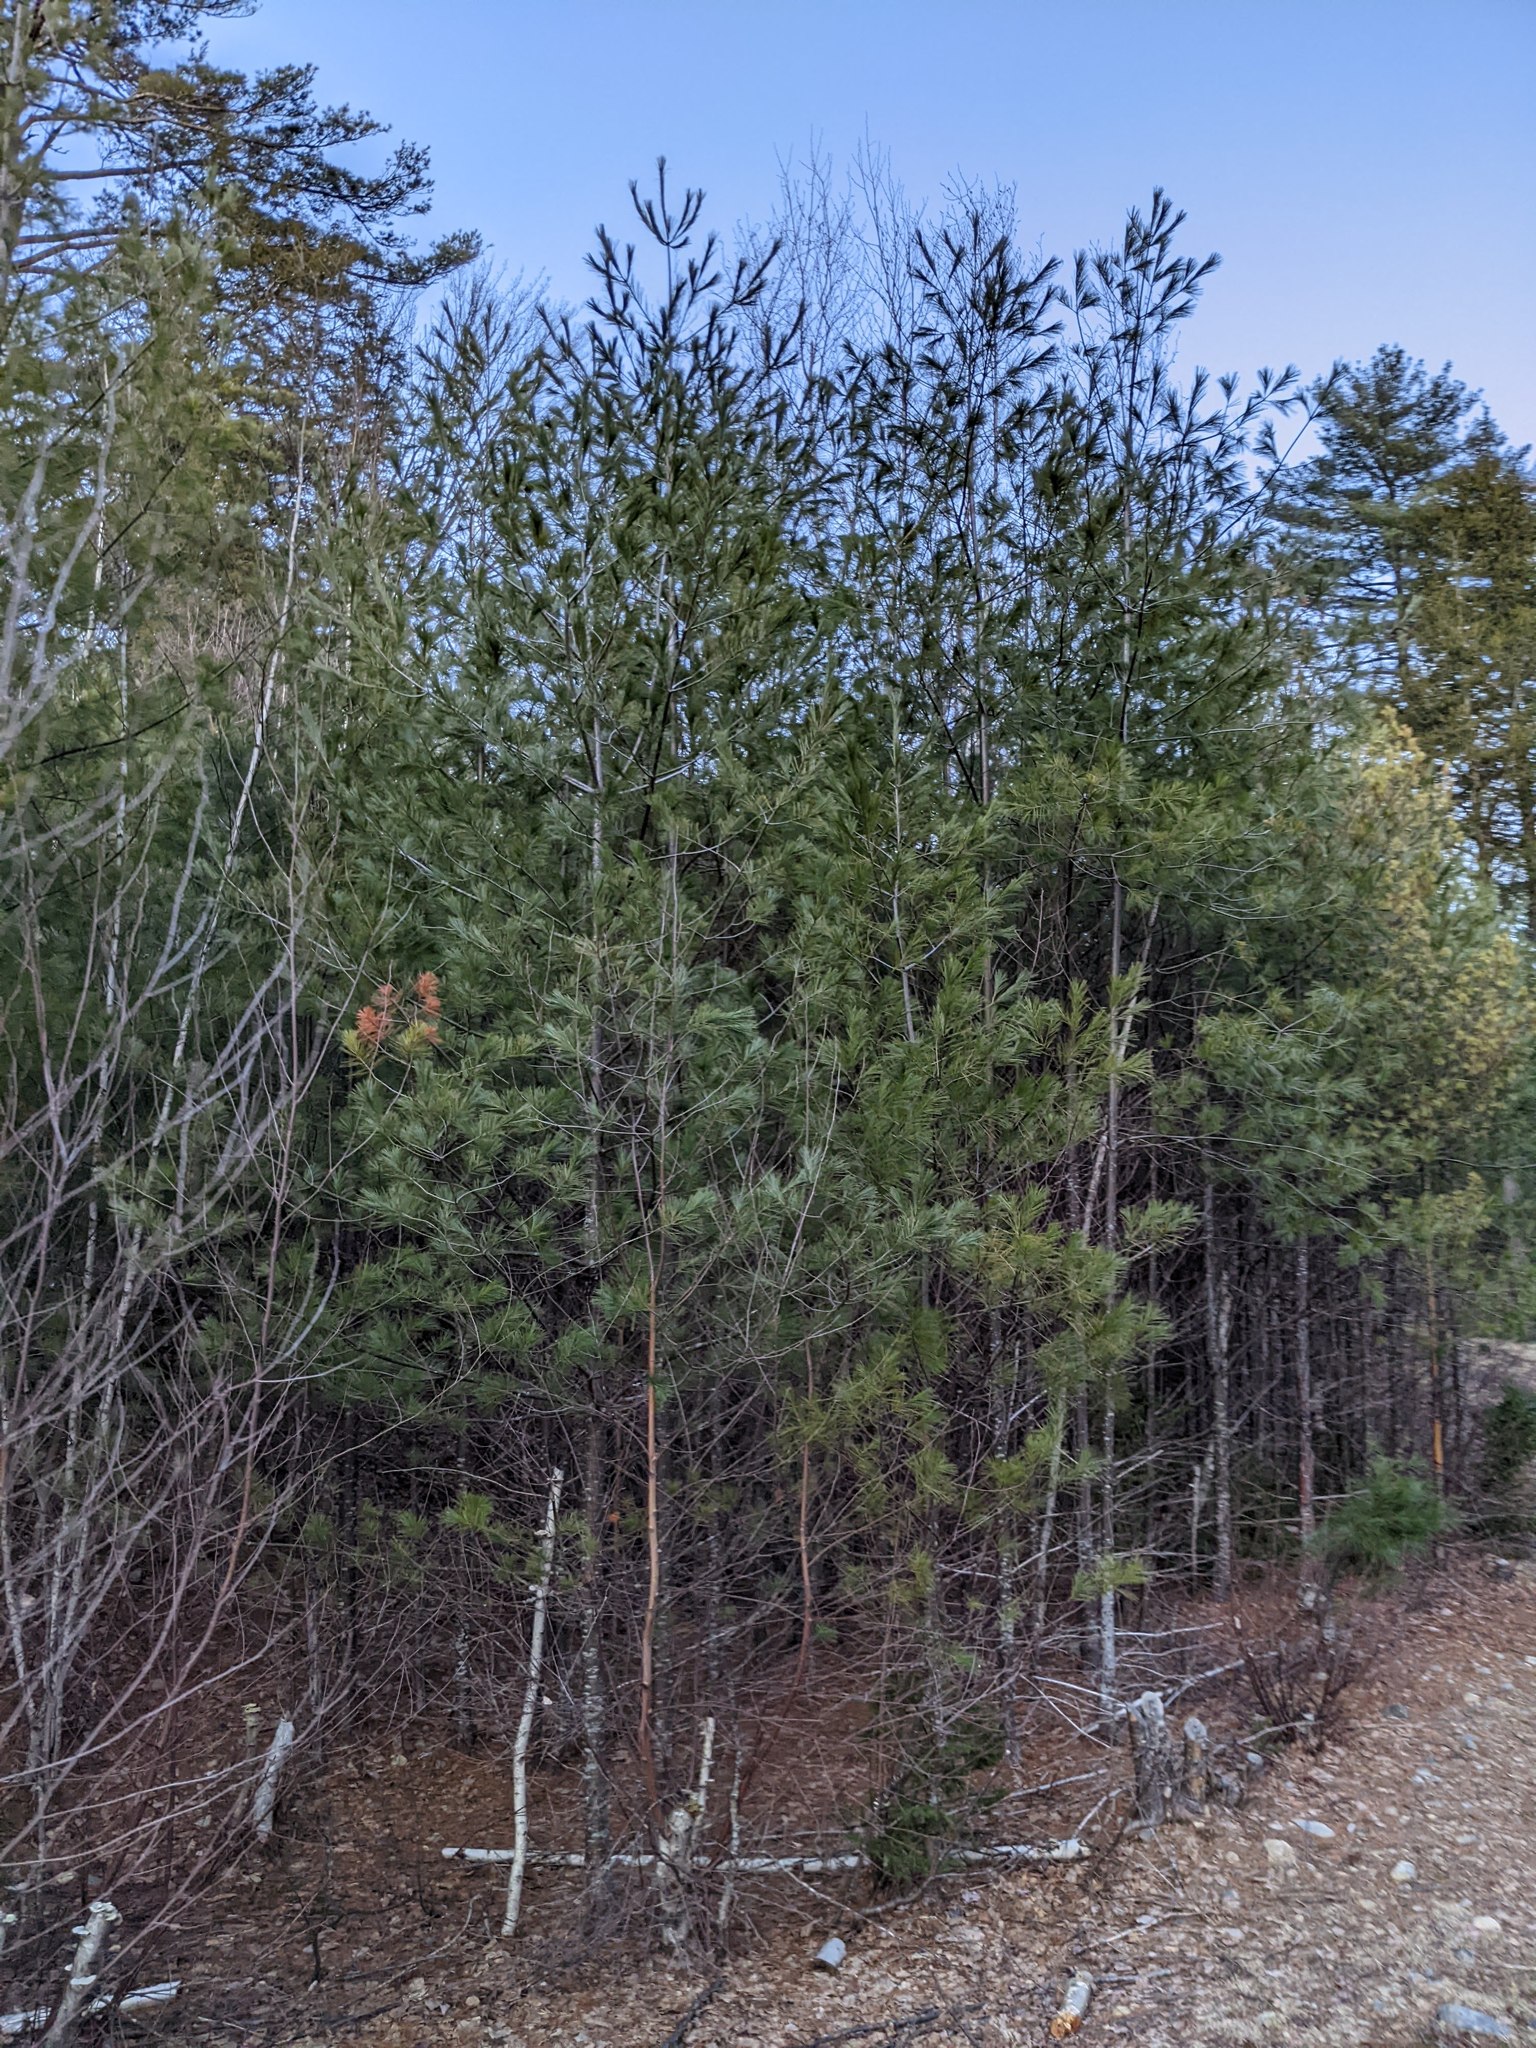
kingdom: Plantae
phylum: Tracheophyta
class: Pinopsida
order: Pinales
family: Pinaceae
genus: Pinus
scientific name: Pinus strobus
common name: Weymouth pine
